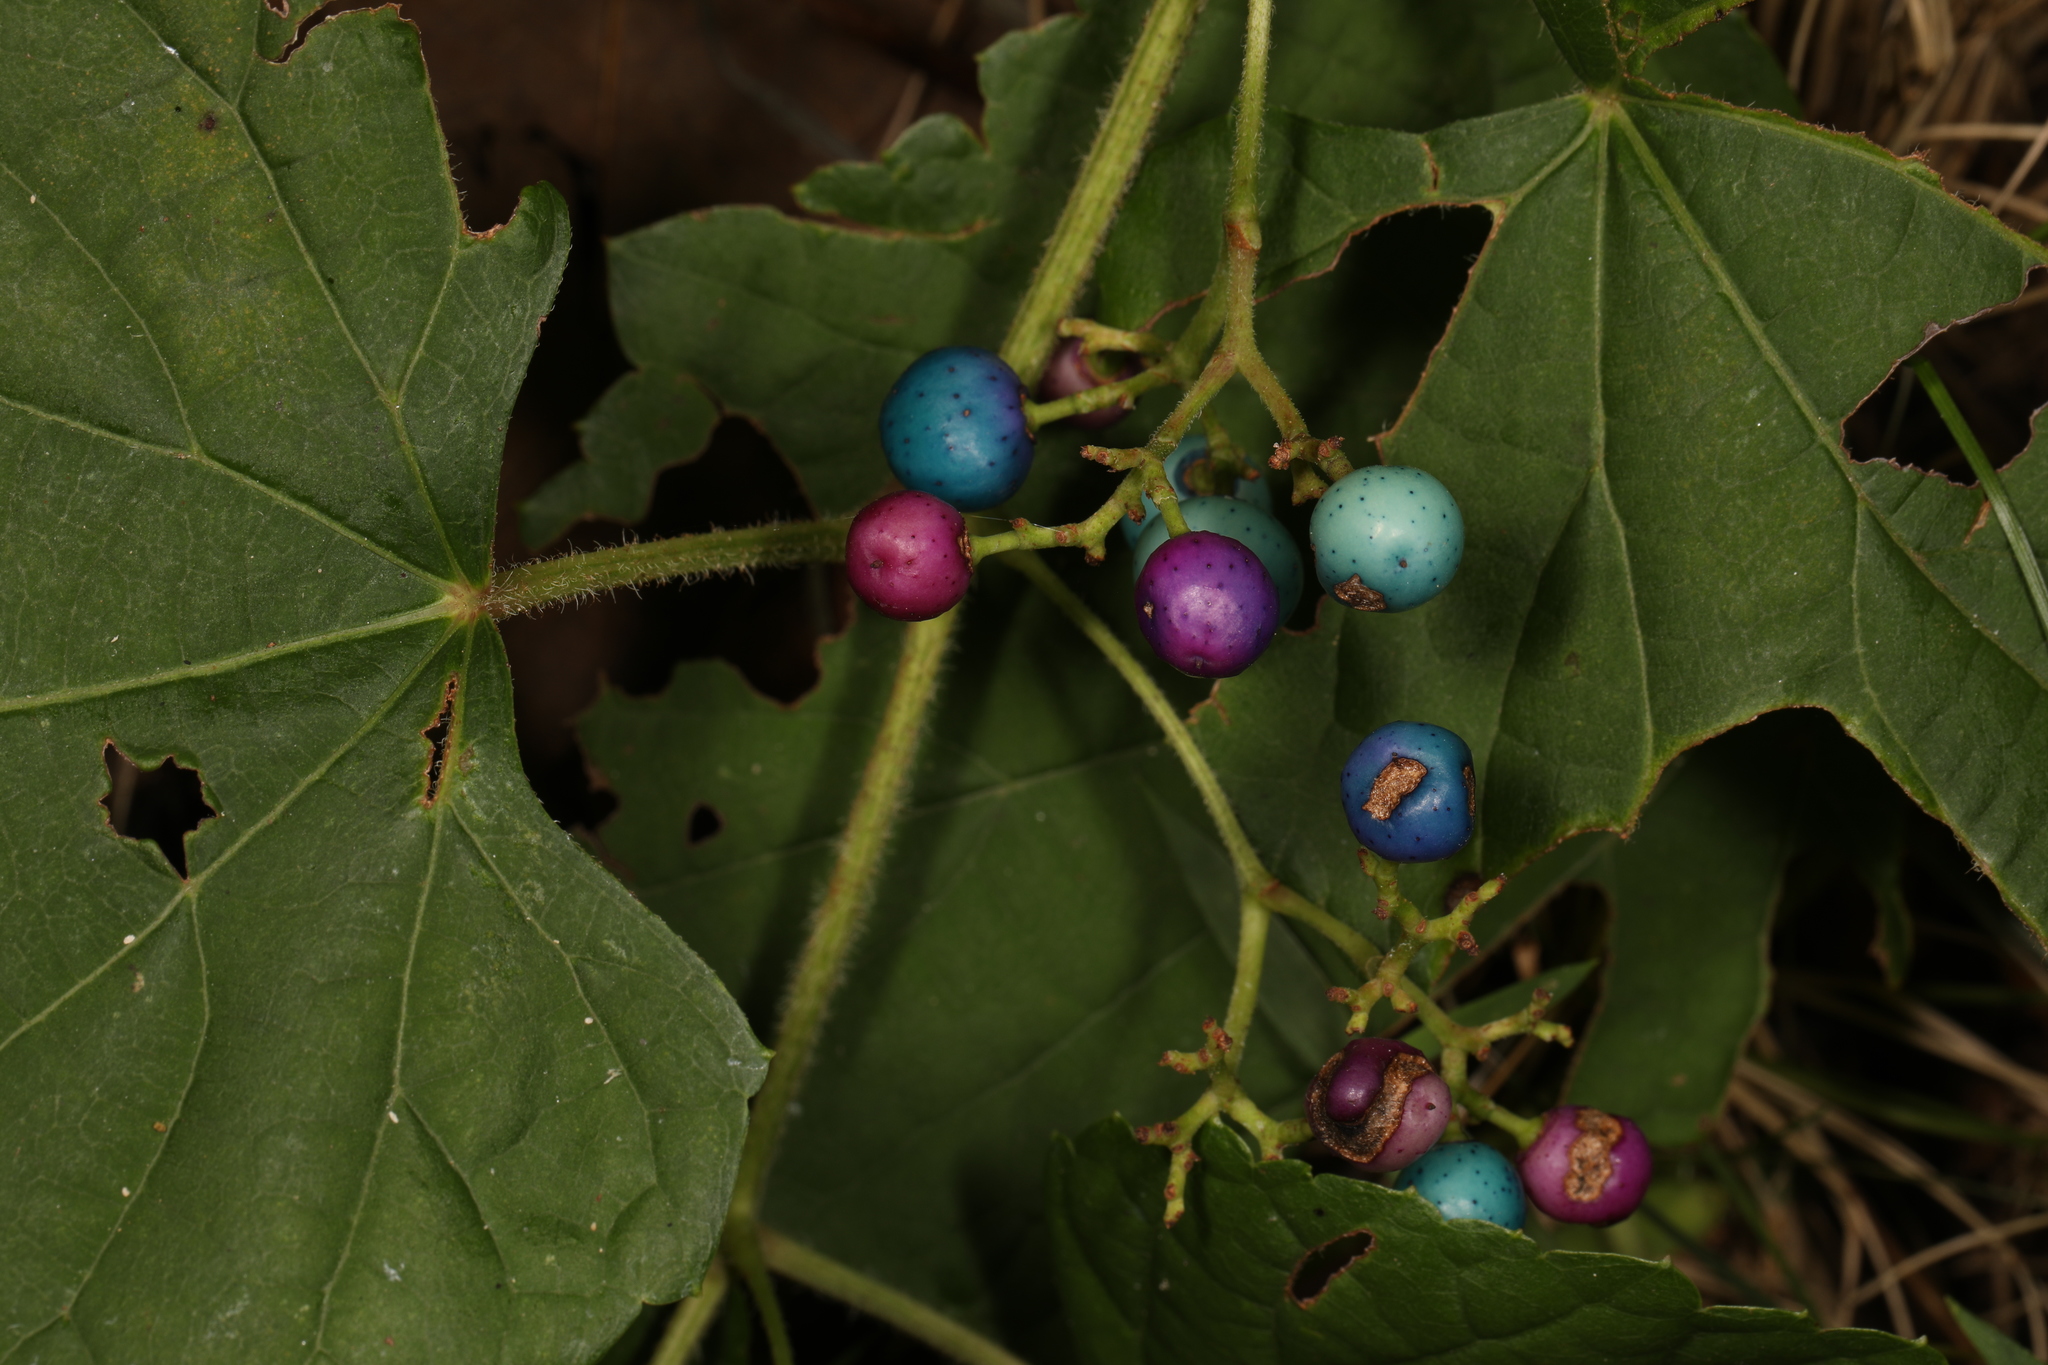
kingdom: Plantae
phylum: Tracheophyta
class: Magnoliopsida
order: Vitales
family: Vitaceae
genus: Ampelopsis
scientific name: Ampelopsis glandulosa
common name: Amur peppervine
